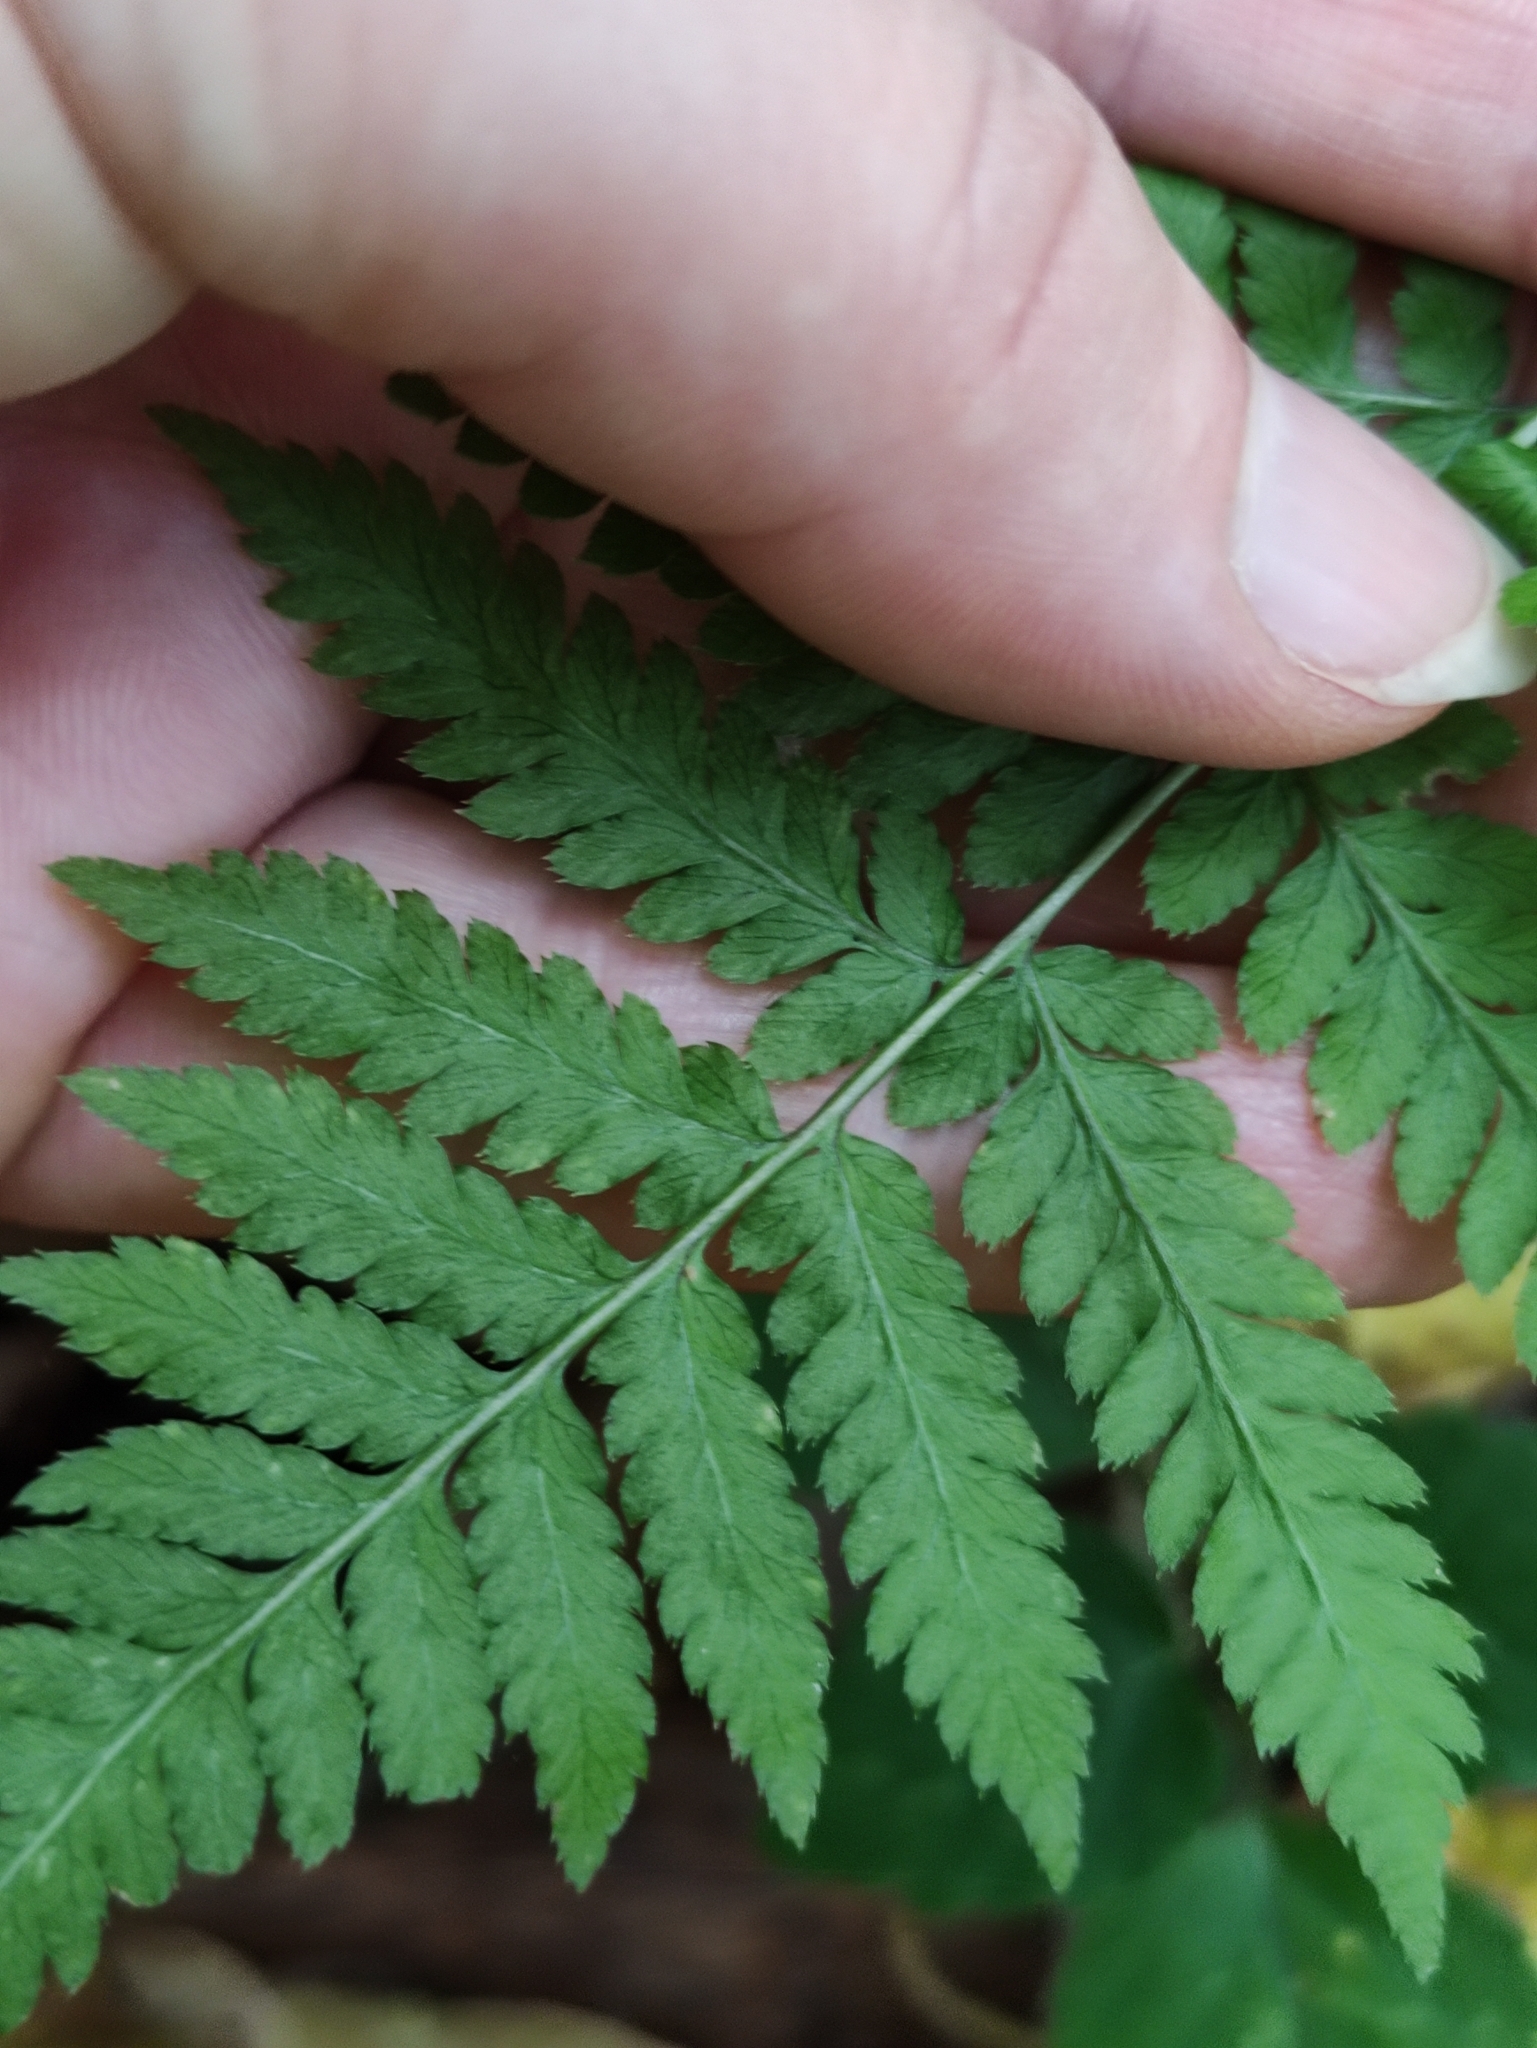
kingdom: Plantae
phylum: Tracheophyta
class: Polypodiopsida
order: Polypodiales
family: Dryopteridaceae
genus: Dryopteris
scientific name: Dryopteris carthusiana
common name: Narrow buckler-fern
